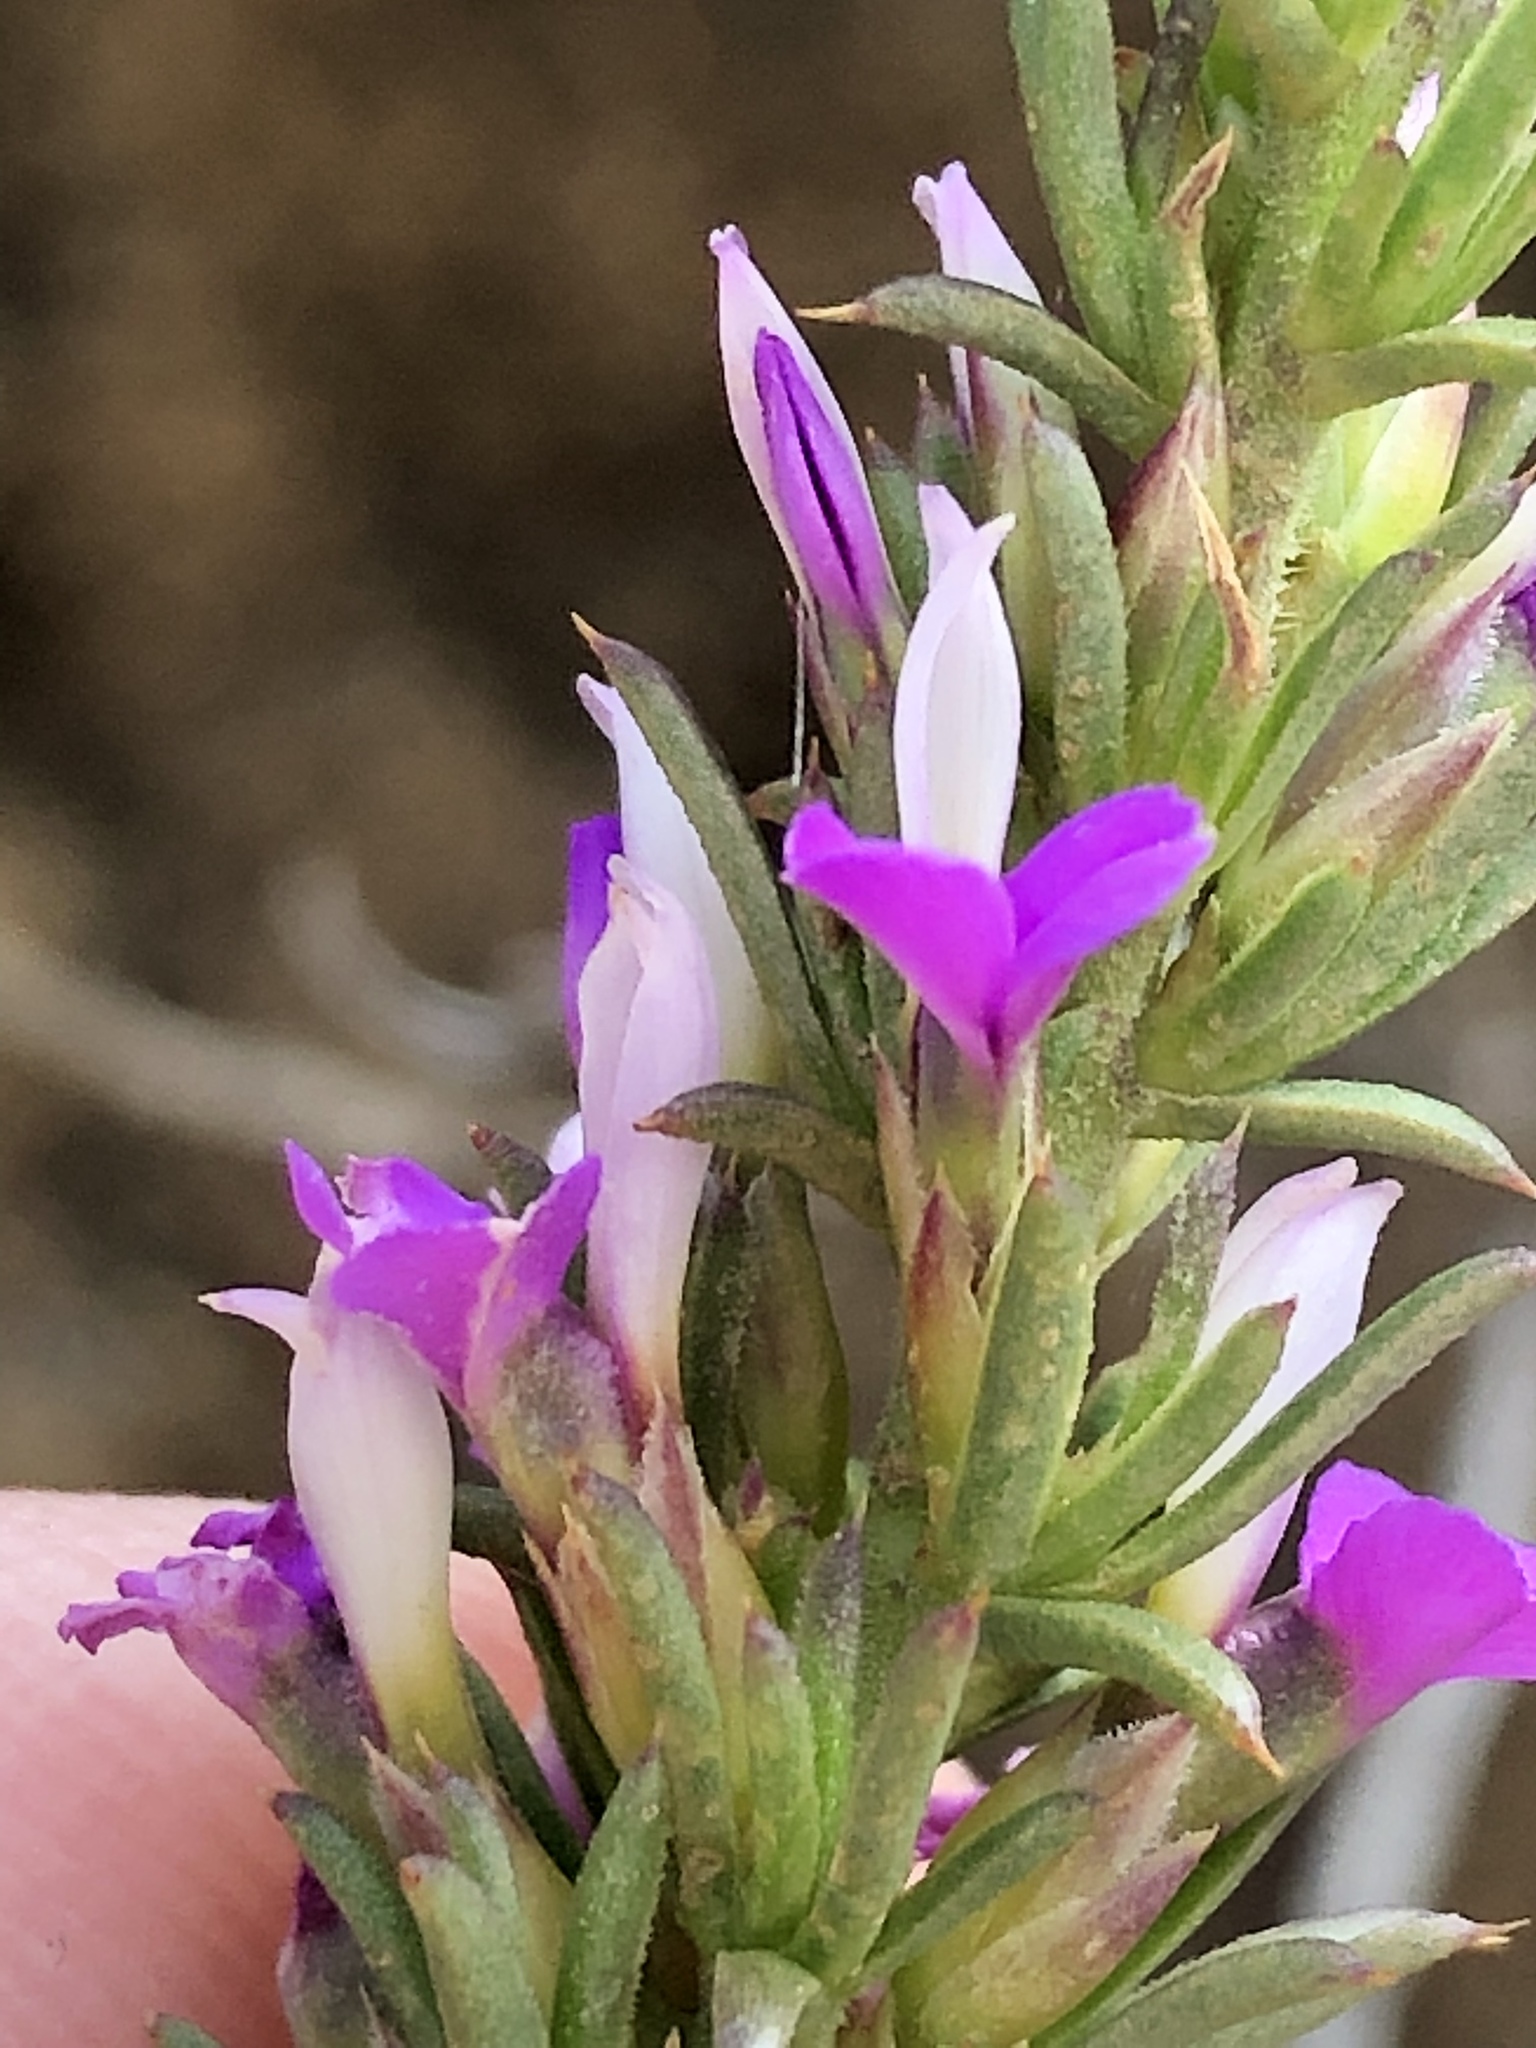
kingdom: Plantae
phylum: Tracheophyta
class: Magnoliopsida
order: Fabales
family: Polygalaceae
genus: Muraltia
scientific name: Muraltia heisteria
